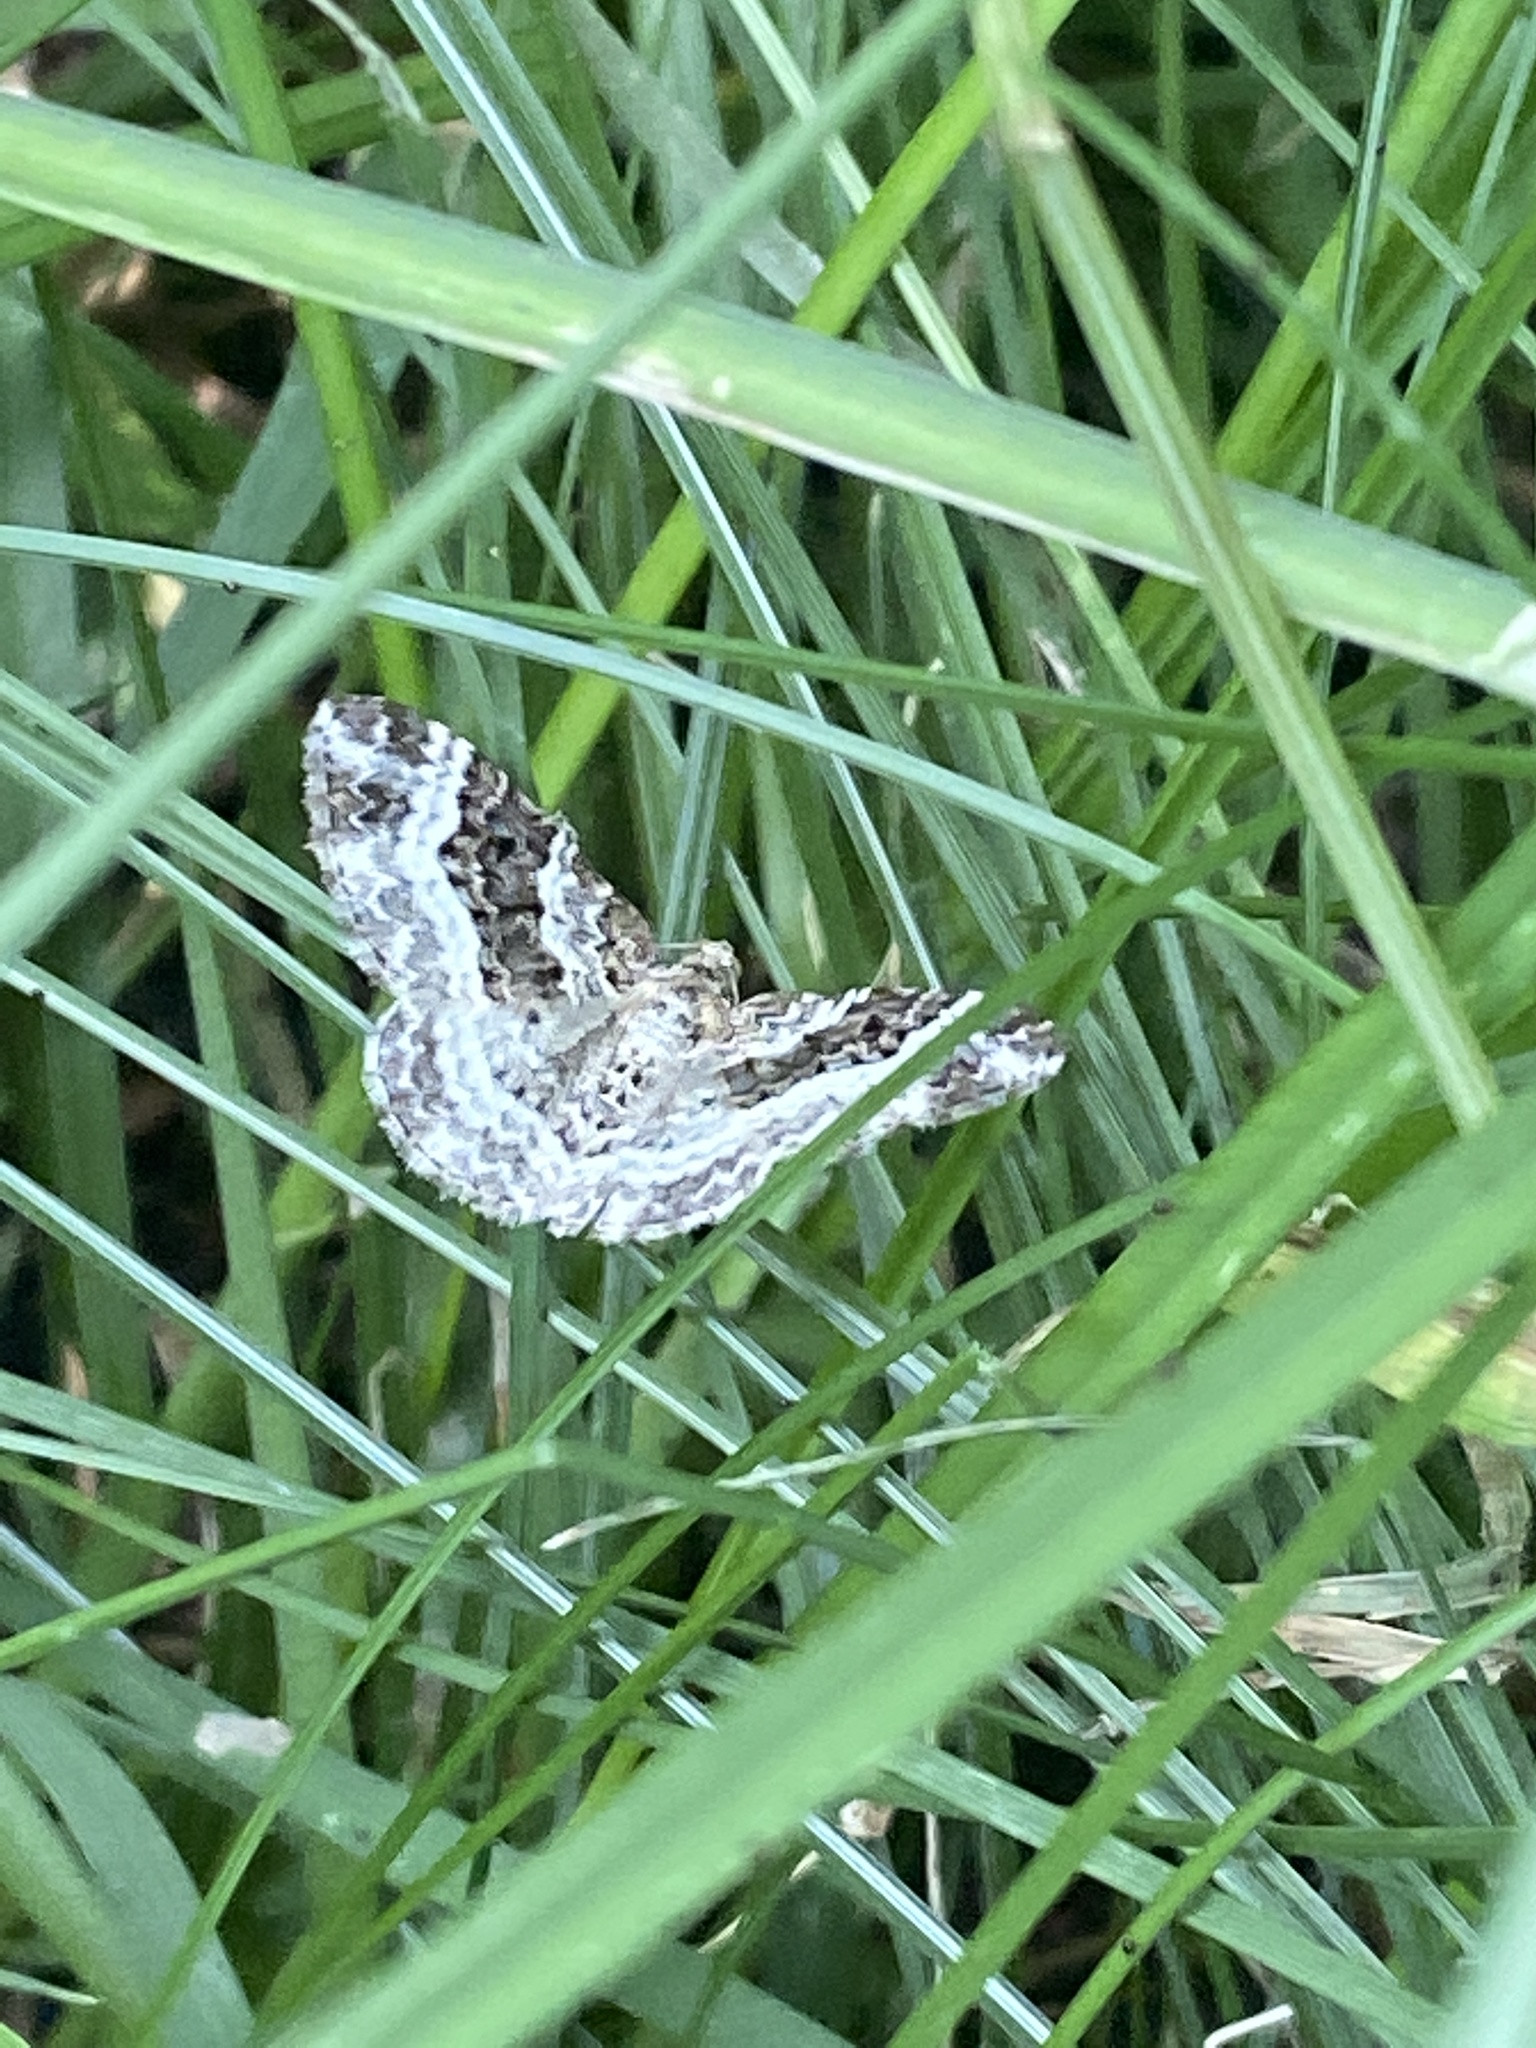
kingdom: Animalia
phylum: Arthropoda
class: Insecta
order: Lepidoptera
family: Geometridae
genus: Epirrhoe
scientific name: Epirrhoe alternata
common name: Common carpet
